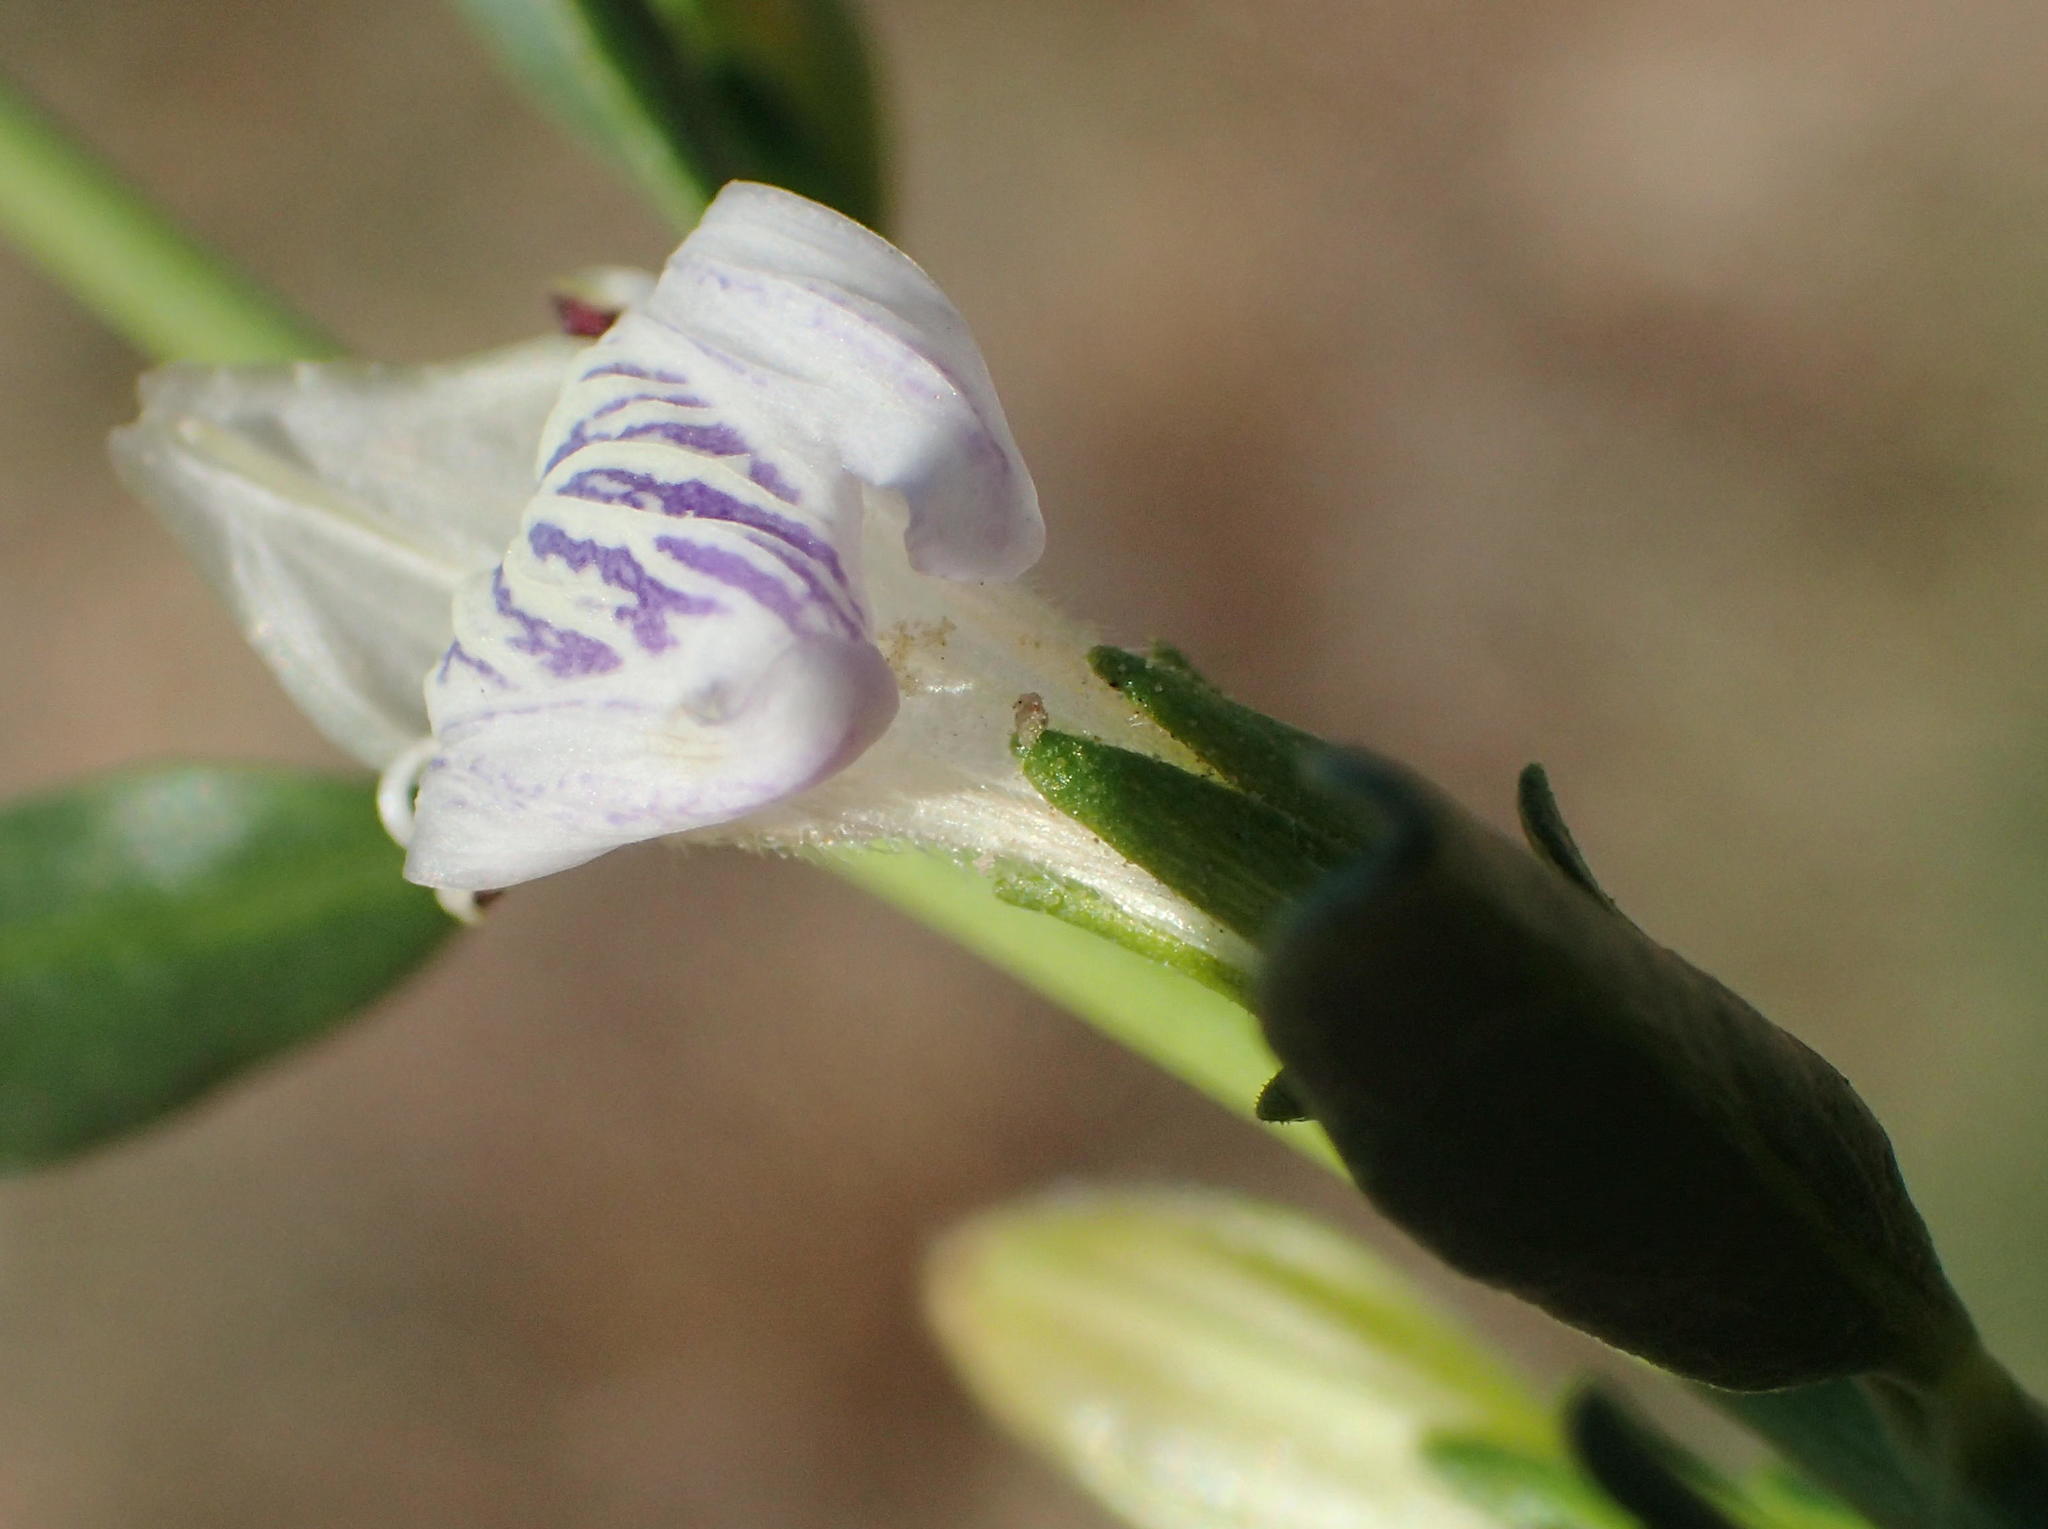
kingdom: Plantae
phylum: Tracheophyta
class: Magnoliopsida
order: Lamiales
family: Acanthaceae
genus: Pogonospermum
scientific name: Pogonospermum
